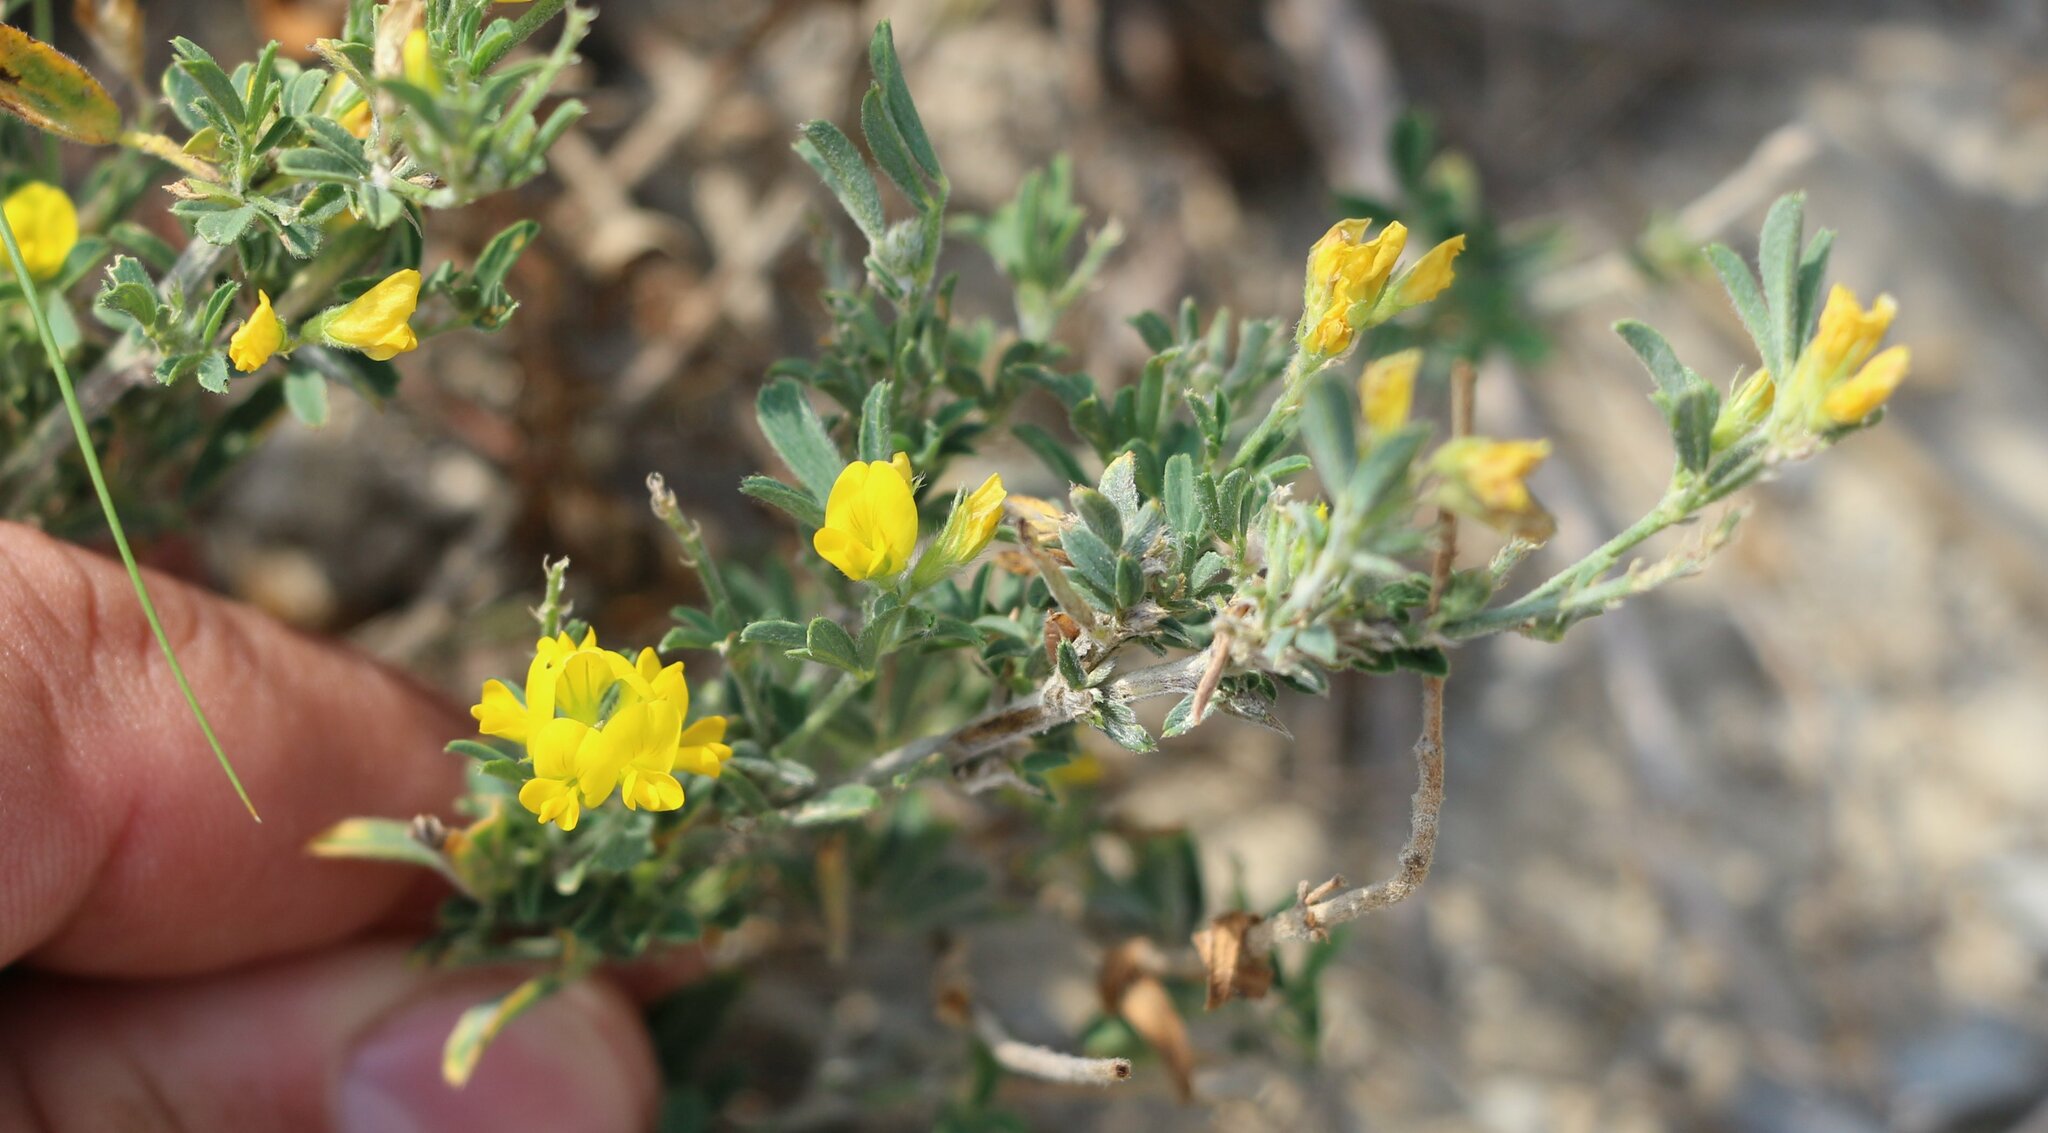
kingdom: Plantae
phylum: Tracheophyta
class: Magnoliopsida
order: Fabales
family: Fabaceae
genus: Medicago
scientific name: Medicago falcata
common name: Sickle medick
